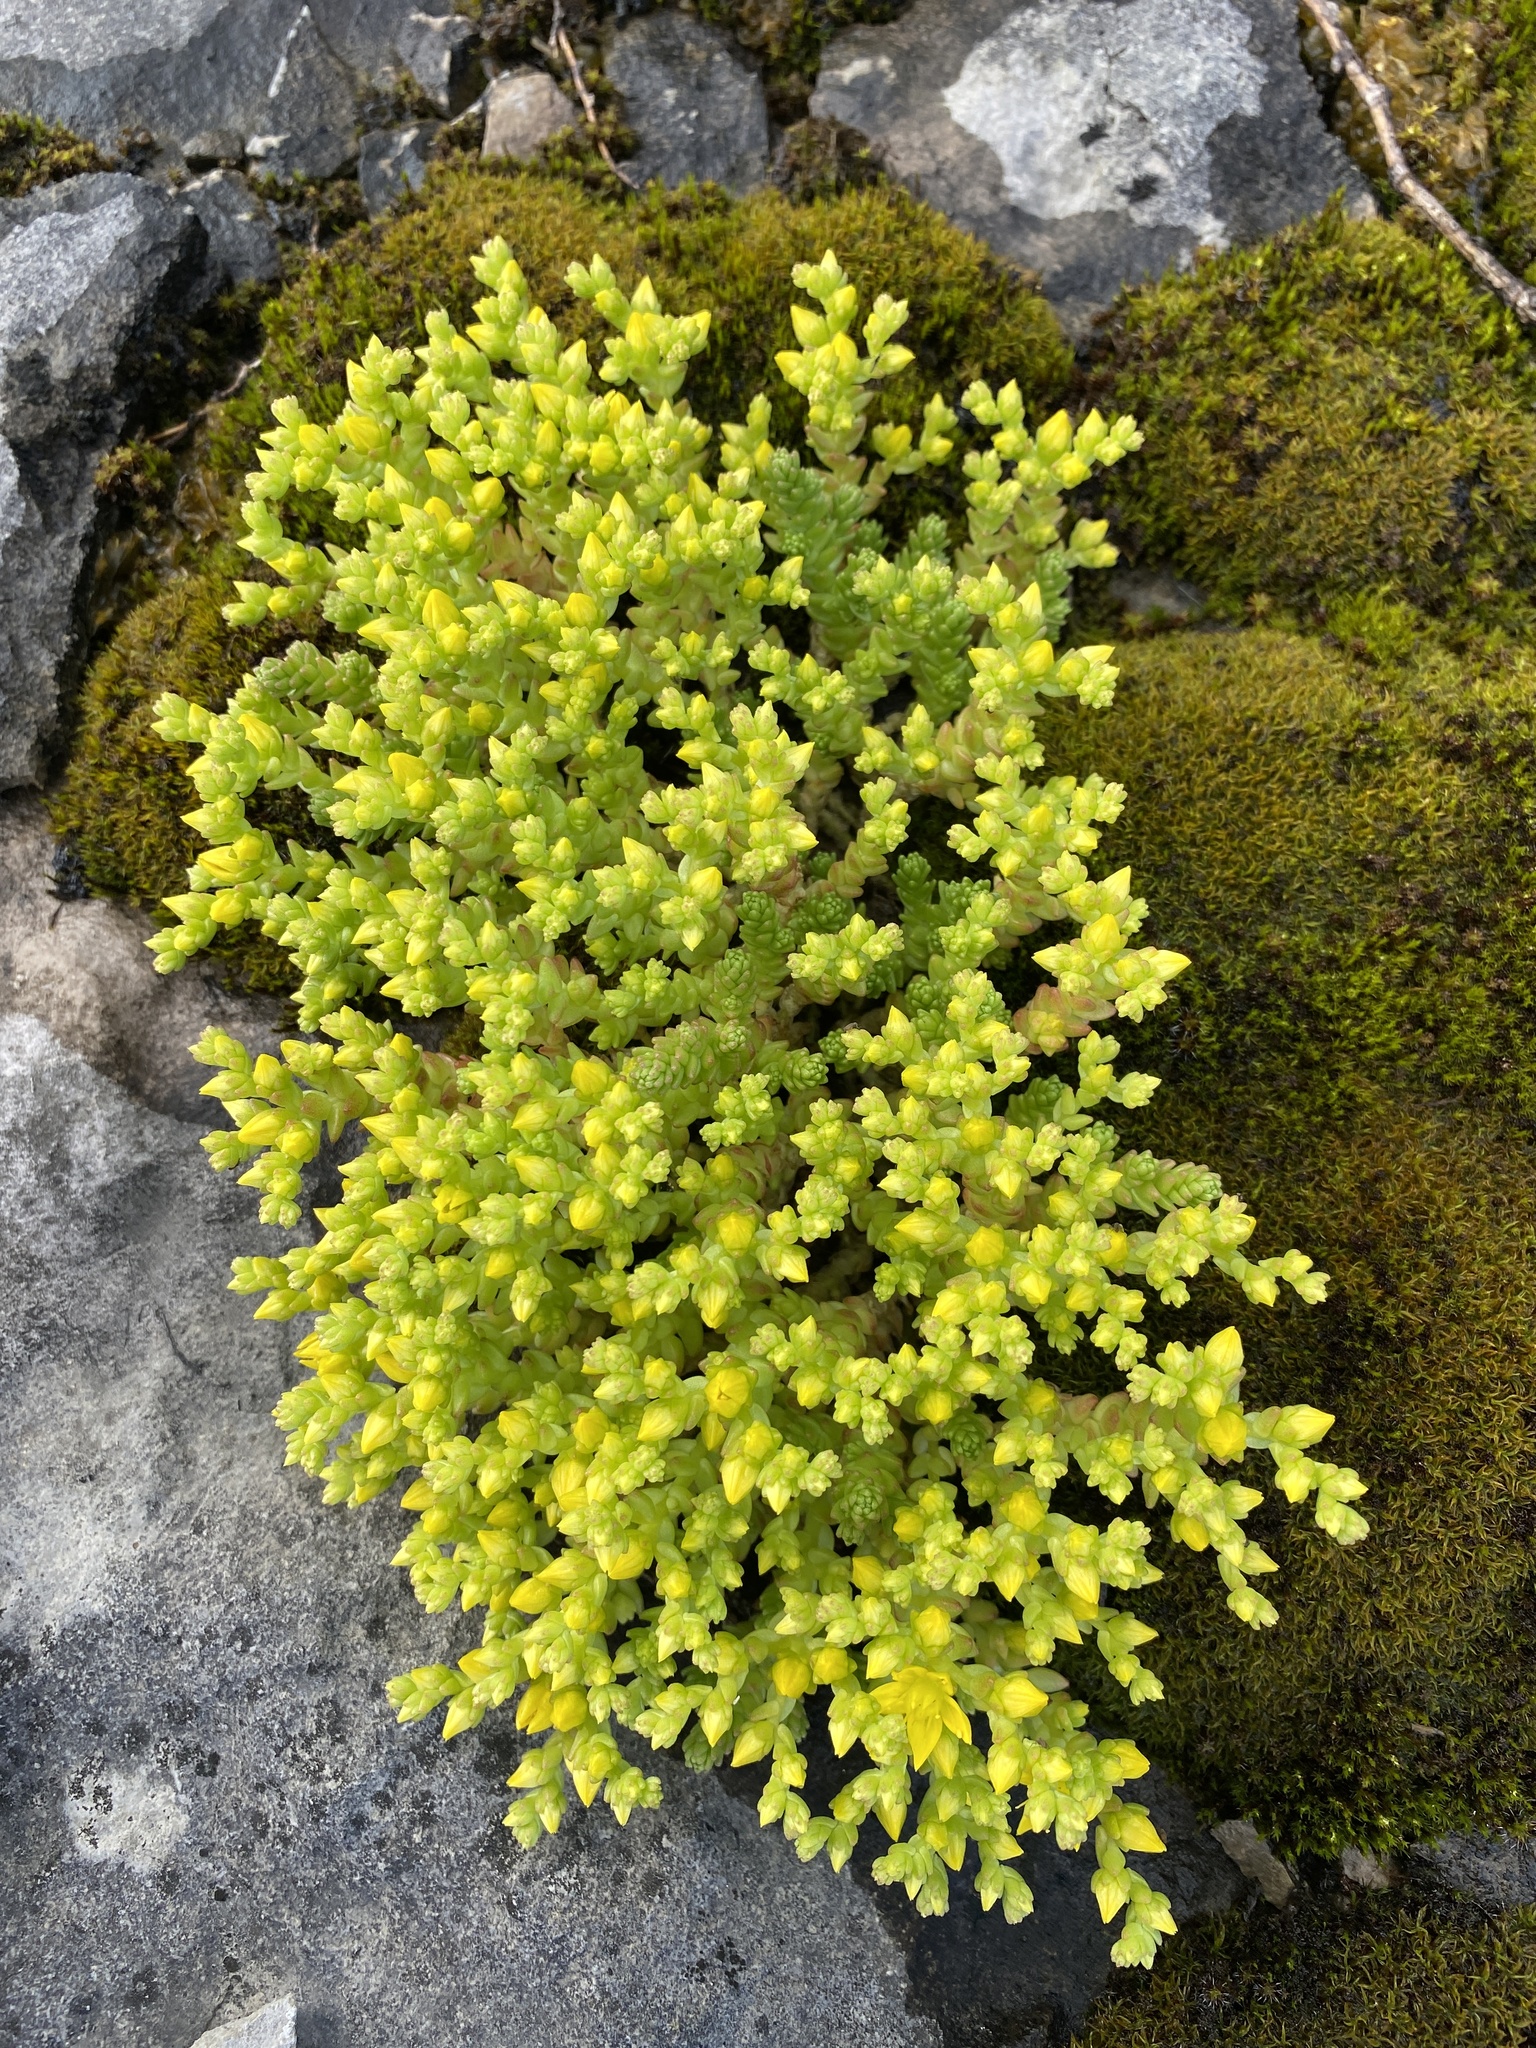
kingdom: Plantae
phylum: Tracheophyta
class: Magnoliopsida
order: Saxifragales
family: Crassulaceae
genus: Sedum
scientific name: Sedum acre
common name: Biting stonecrop
